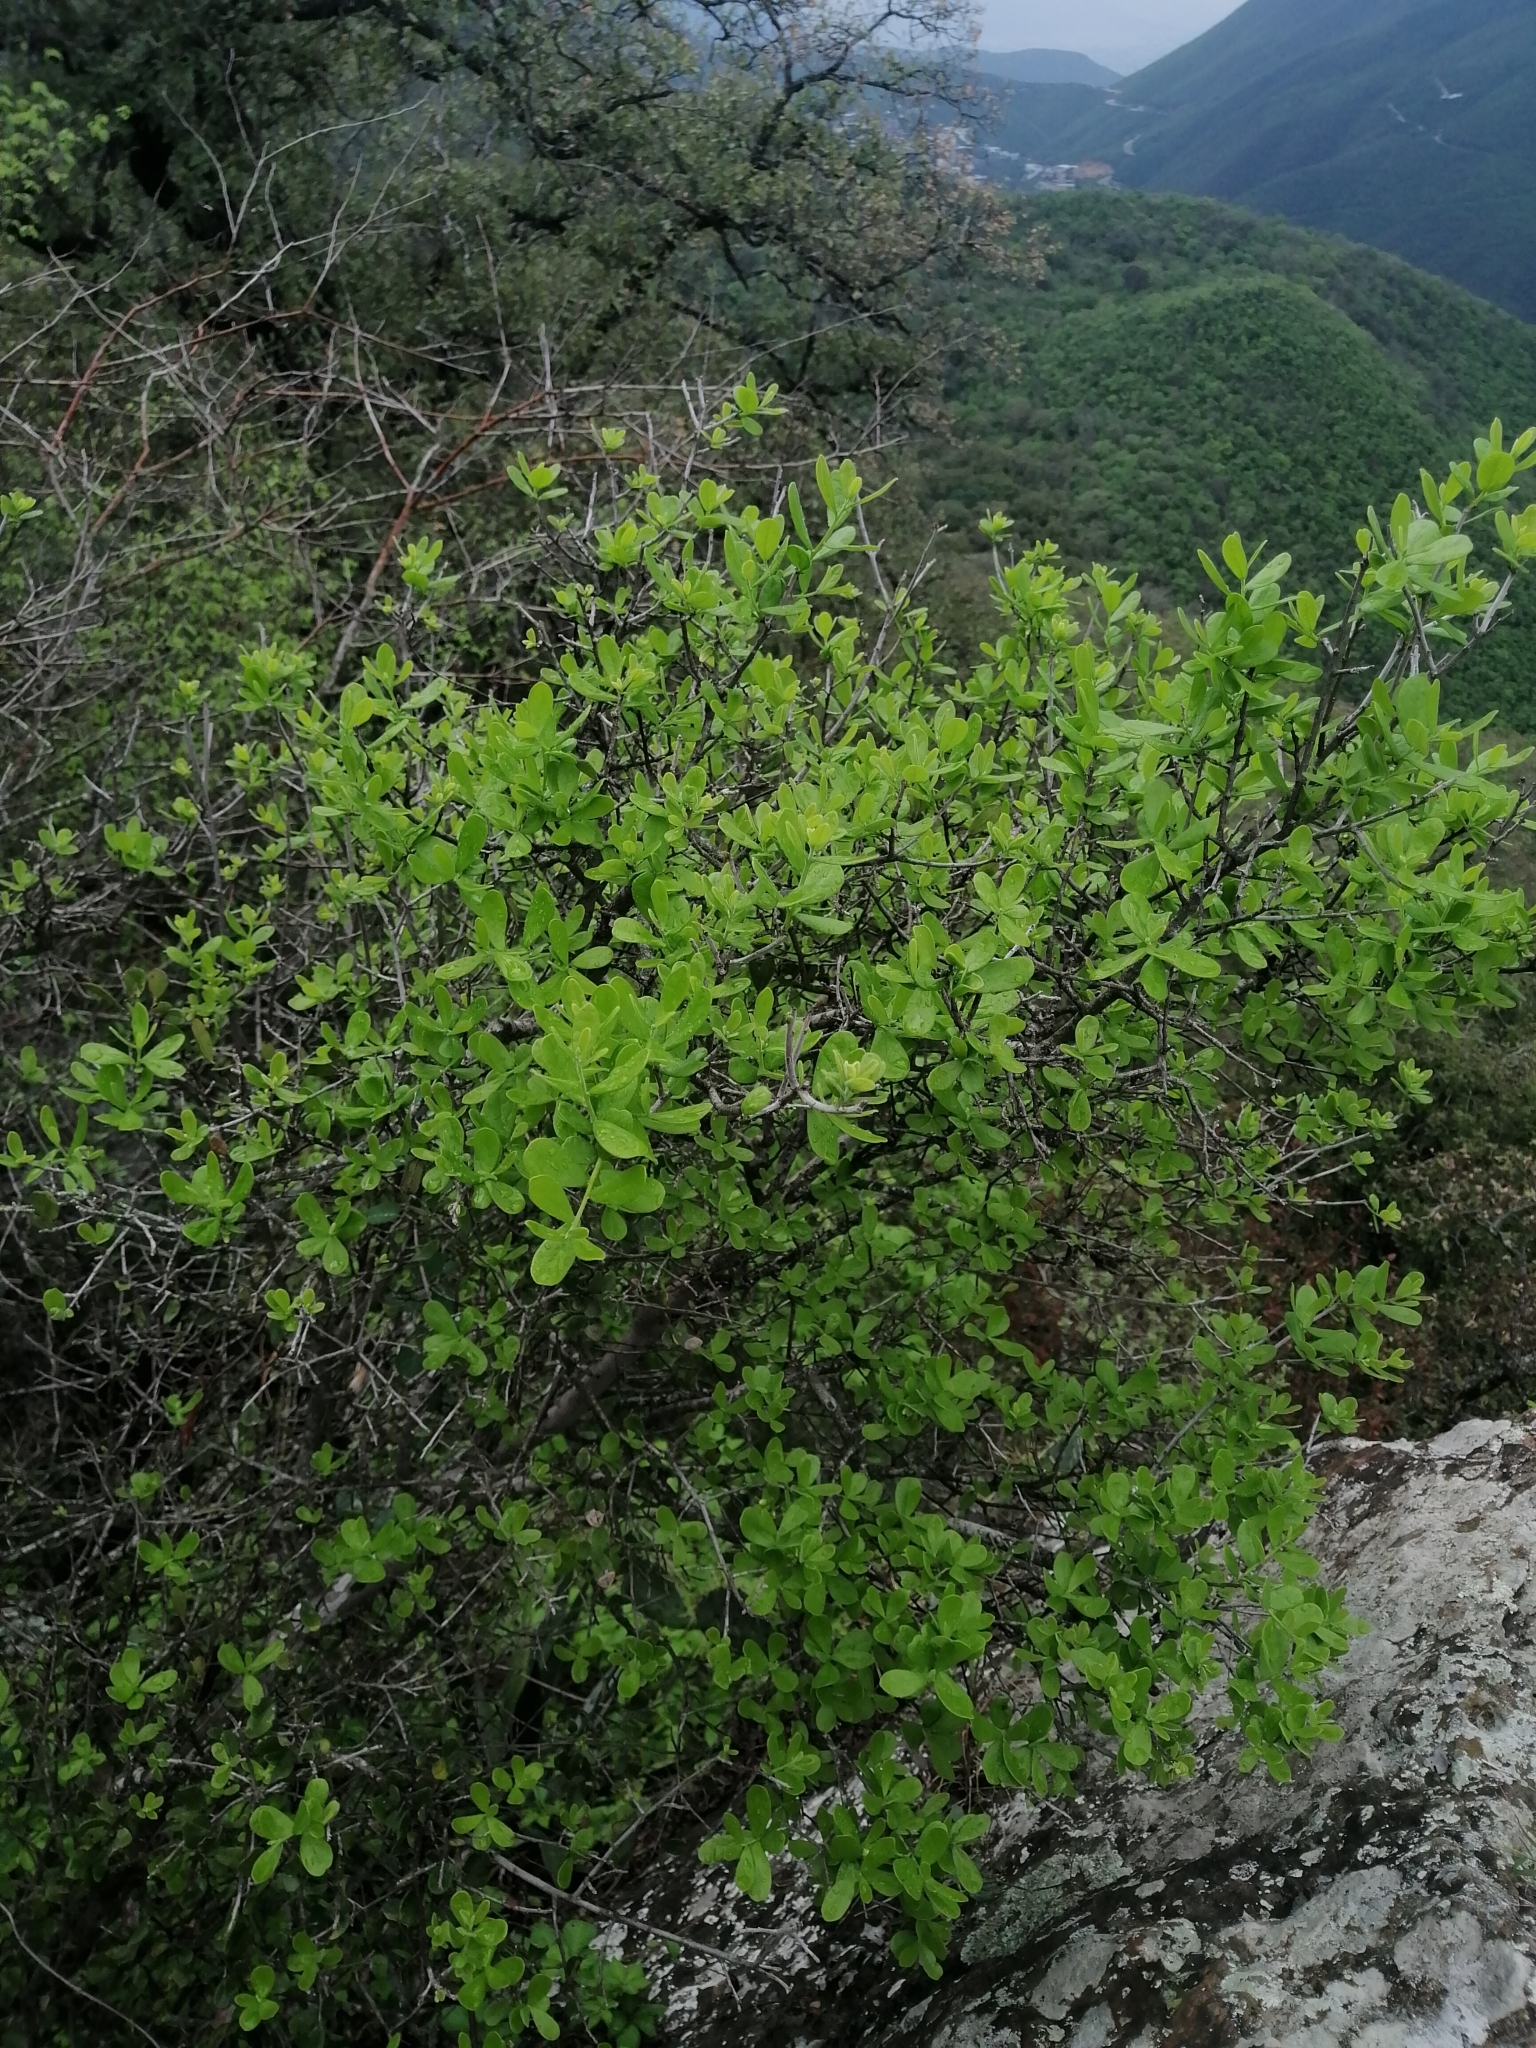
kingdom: Plantae
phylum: Tracheophyta
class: Magnoliopsida
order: Ericales
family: Ebenaceae
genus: Diospyros
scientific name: Diospyros texana
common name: Texas persimmon
